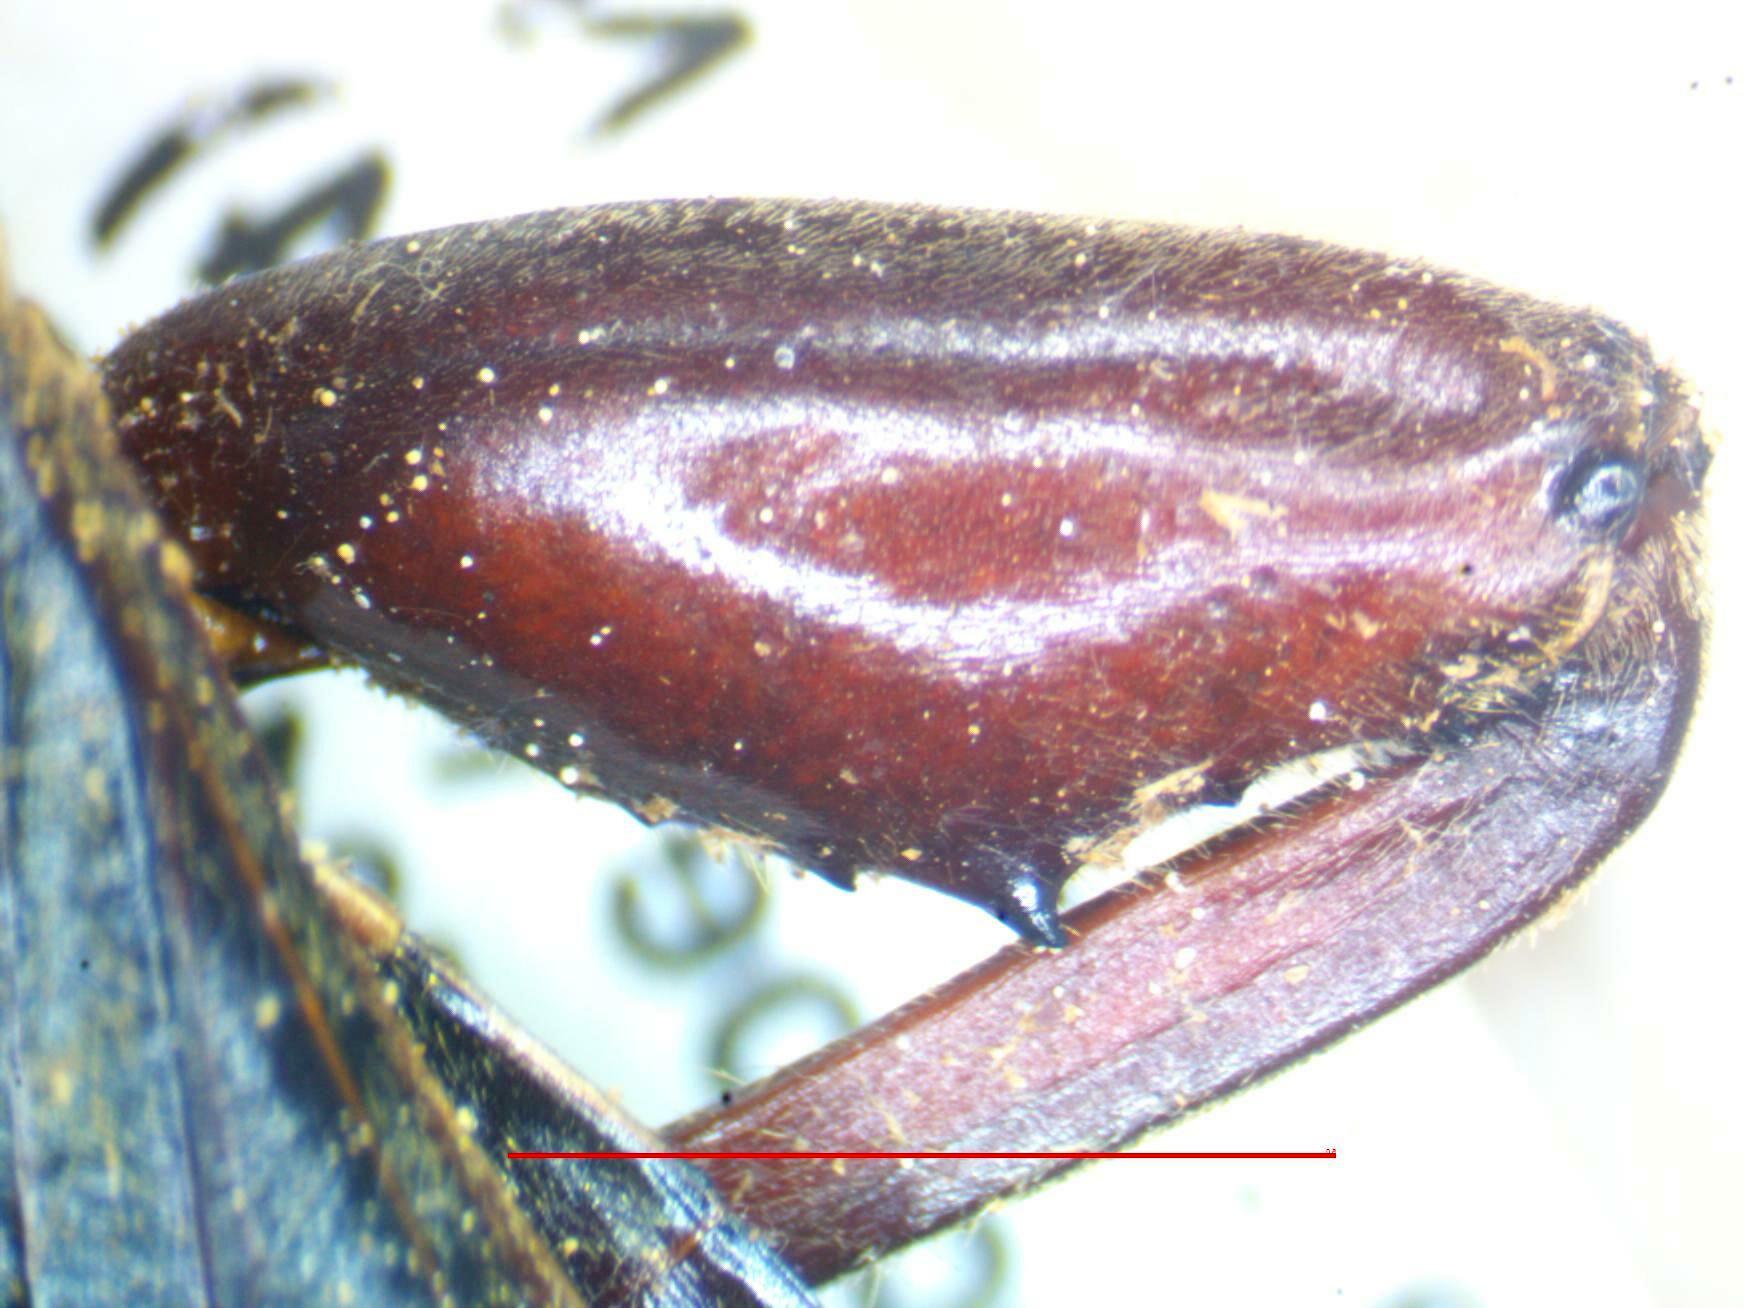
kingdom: Animalia
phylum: Arthropoda
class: Insecta
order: Hemiptera
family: Coreidae
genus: Pachylis
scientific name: Pachylis nervosus
